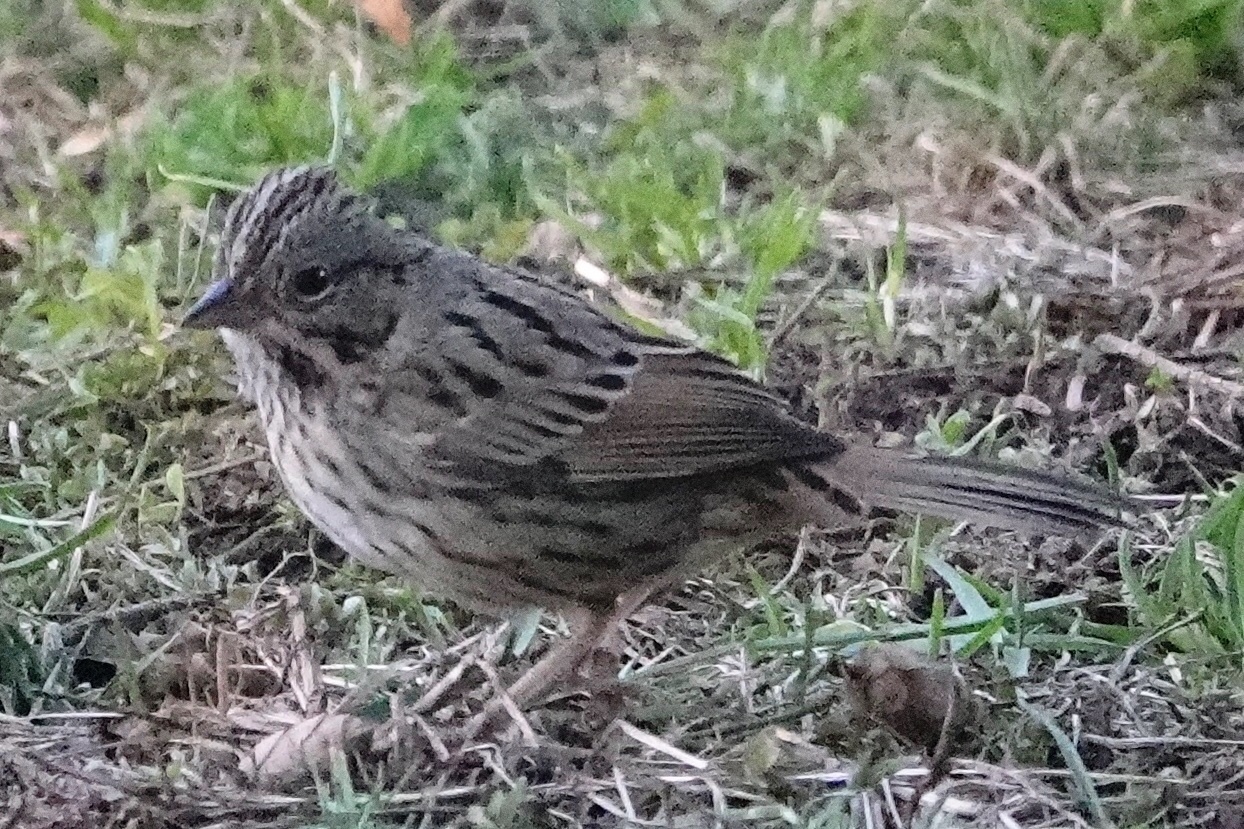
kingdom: Animalia
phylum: Chordata
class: Aves
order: Passeriformes
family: Passerellidae
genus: Melospiza
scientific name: Melospiza lincolnii
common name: Lincoln's sparrow
